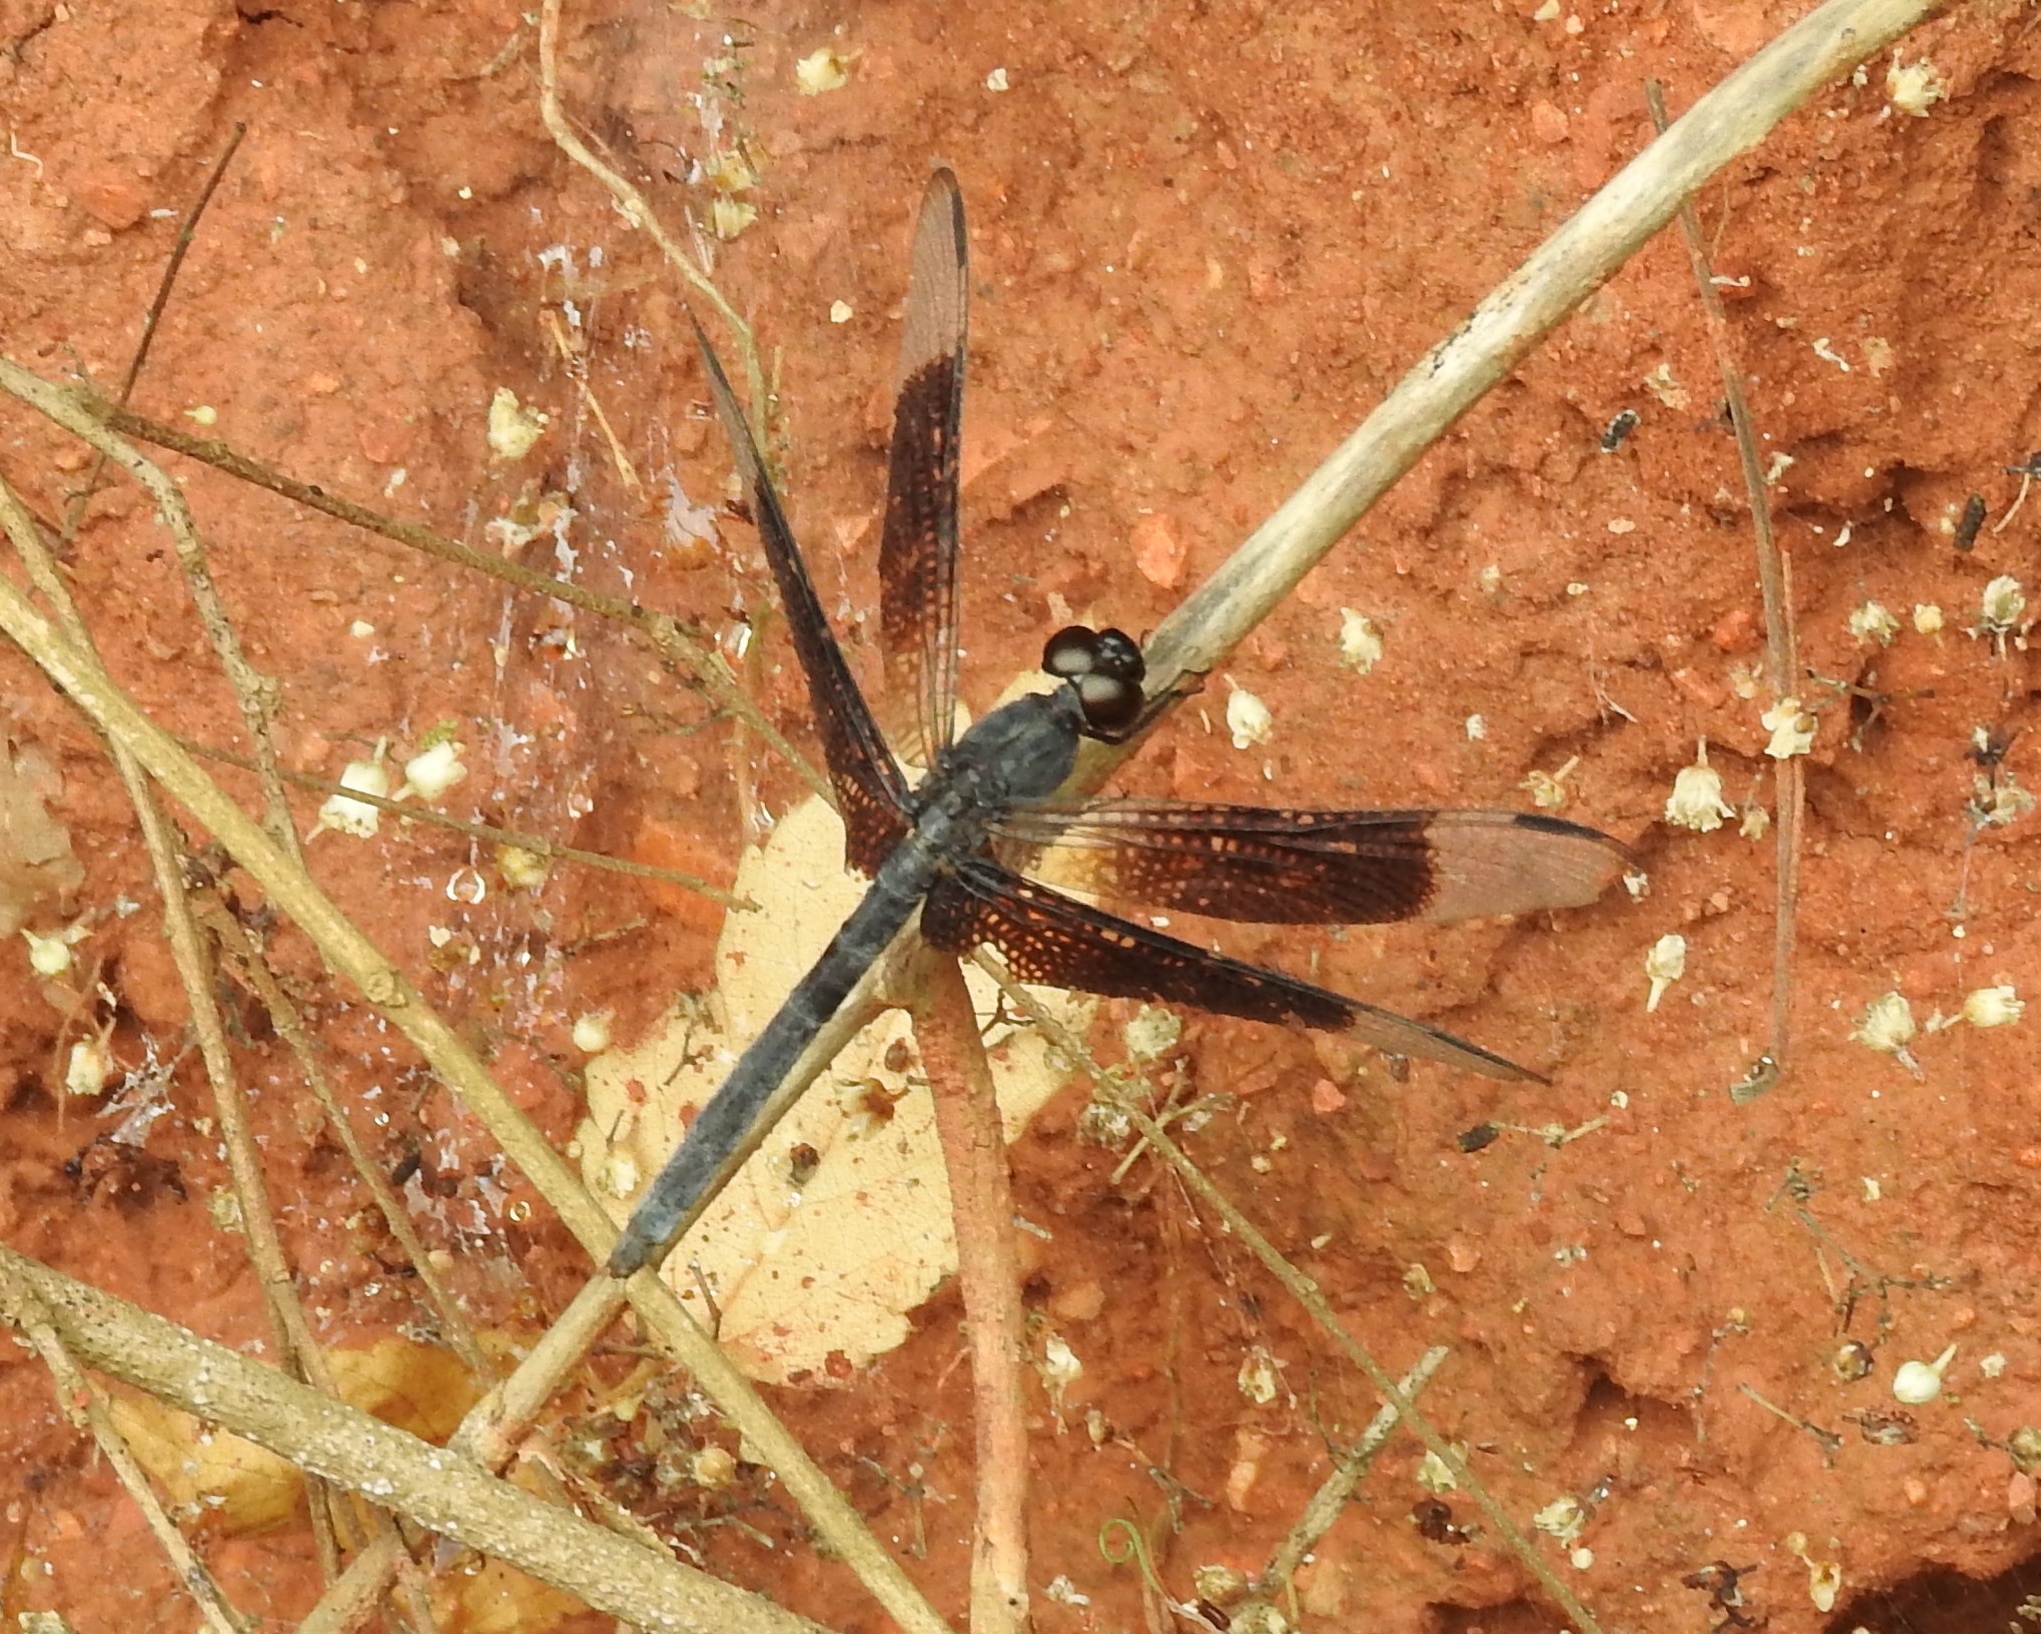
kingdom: Animalia
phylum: Arthropoda
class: Insecta
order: Odonata
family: Libellulidae
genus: Erythrodiplax
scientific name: Erythrodiplax funerea
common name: Black-winged dragonlet
